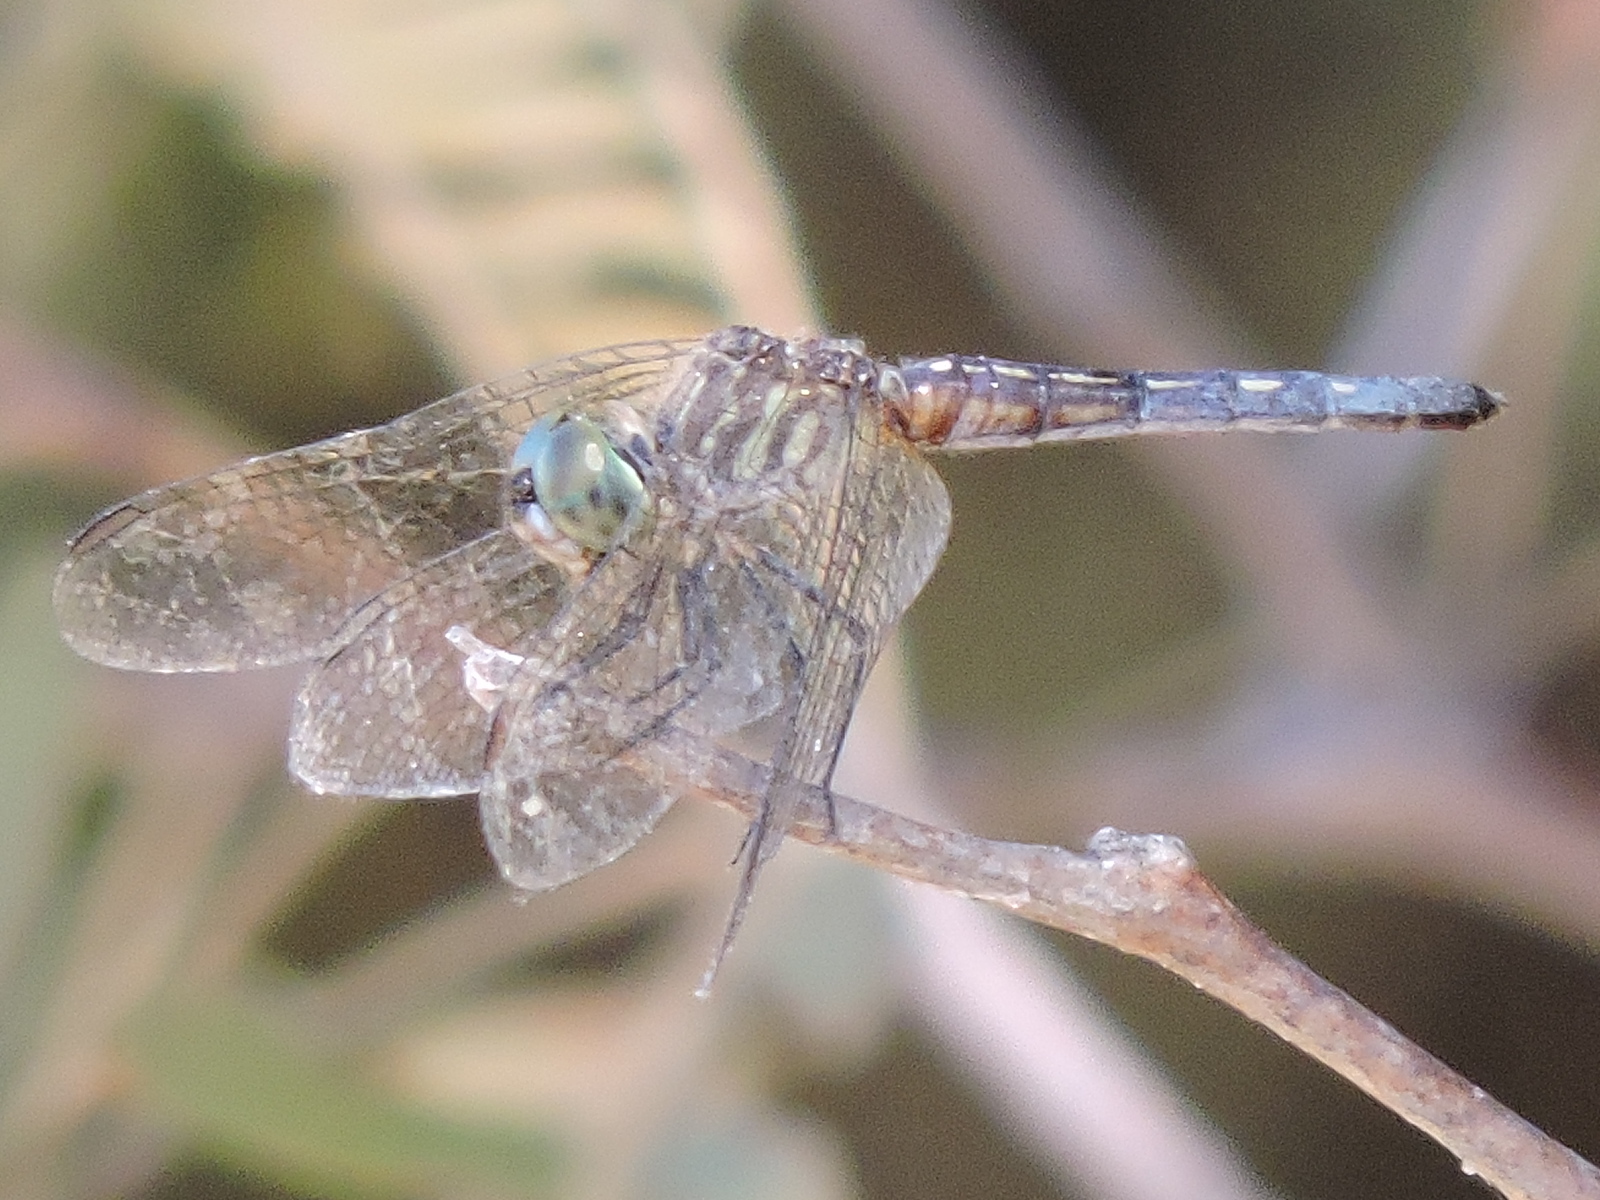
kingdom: Animalia
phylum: Arthropoda
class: Insecta
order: Odonata
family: Libellulidae
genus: Pachydiplax
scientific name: Pachydiplax longipennis
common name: Blue dasher
